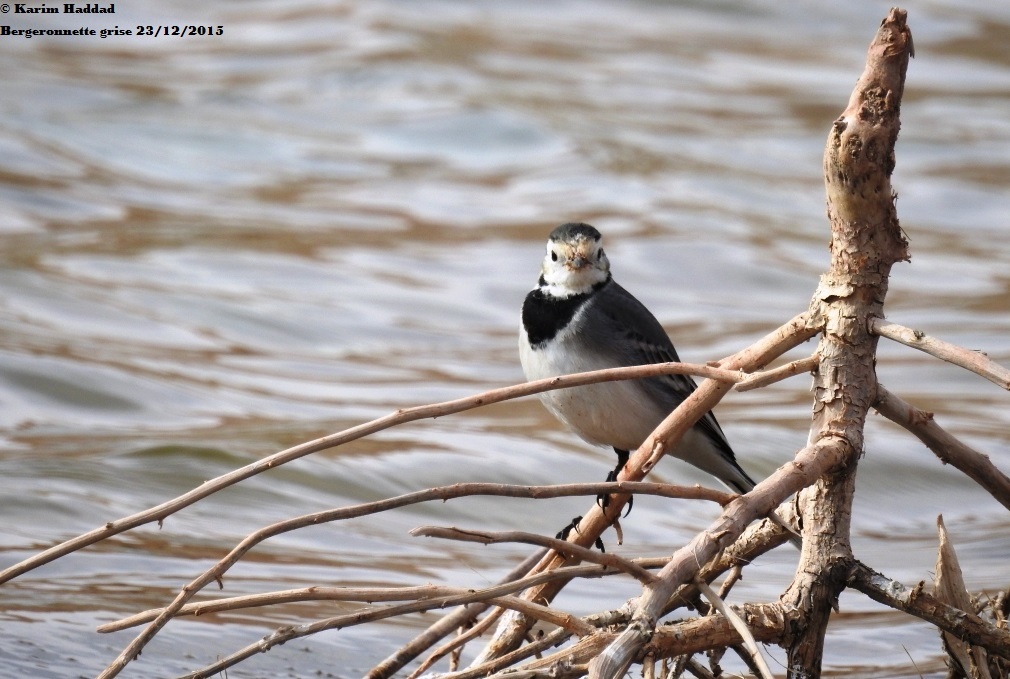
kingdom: Animalia
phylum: Chordata
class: Aves
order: Passeriformes
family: Motacillidae
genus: Motacilla
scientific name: Motacilla alba
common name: White wagtail
